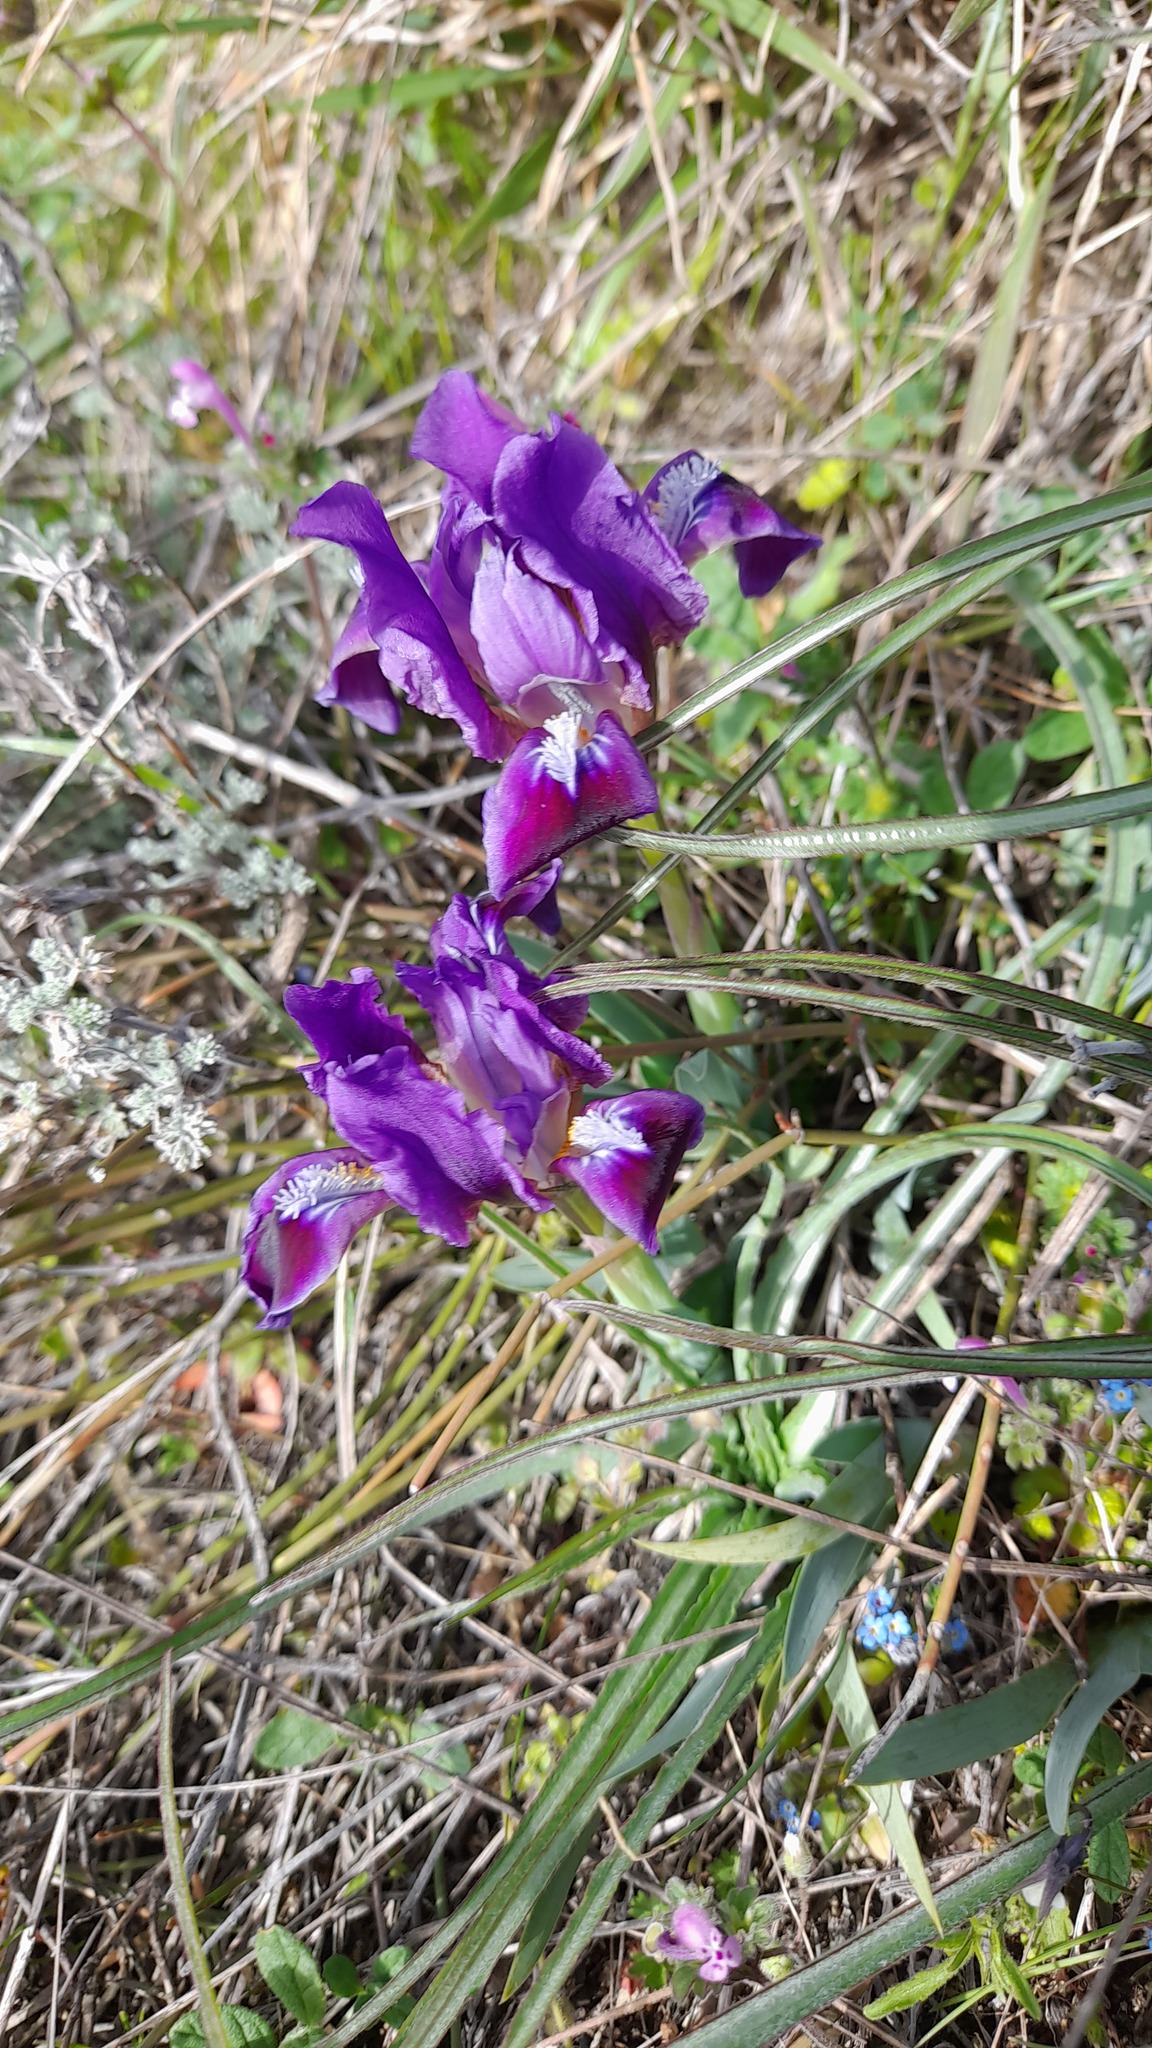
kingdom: Plantae
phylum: Tracheophyta
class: Liliopsida
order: Asparagales
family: Iridaceae
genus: Iris
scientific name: Iris pumila
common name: Dwarf iris
